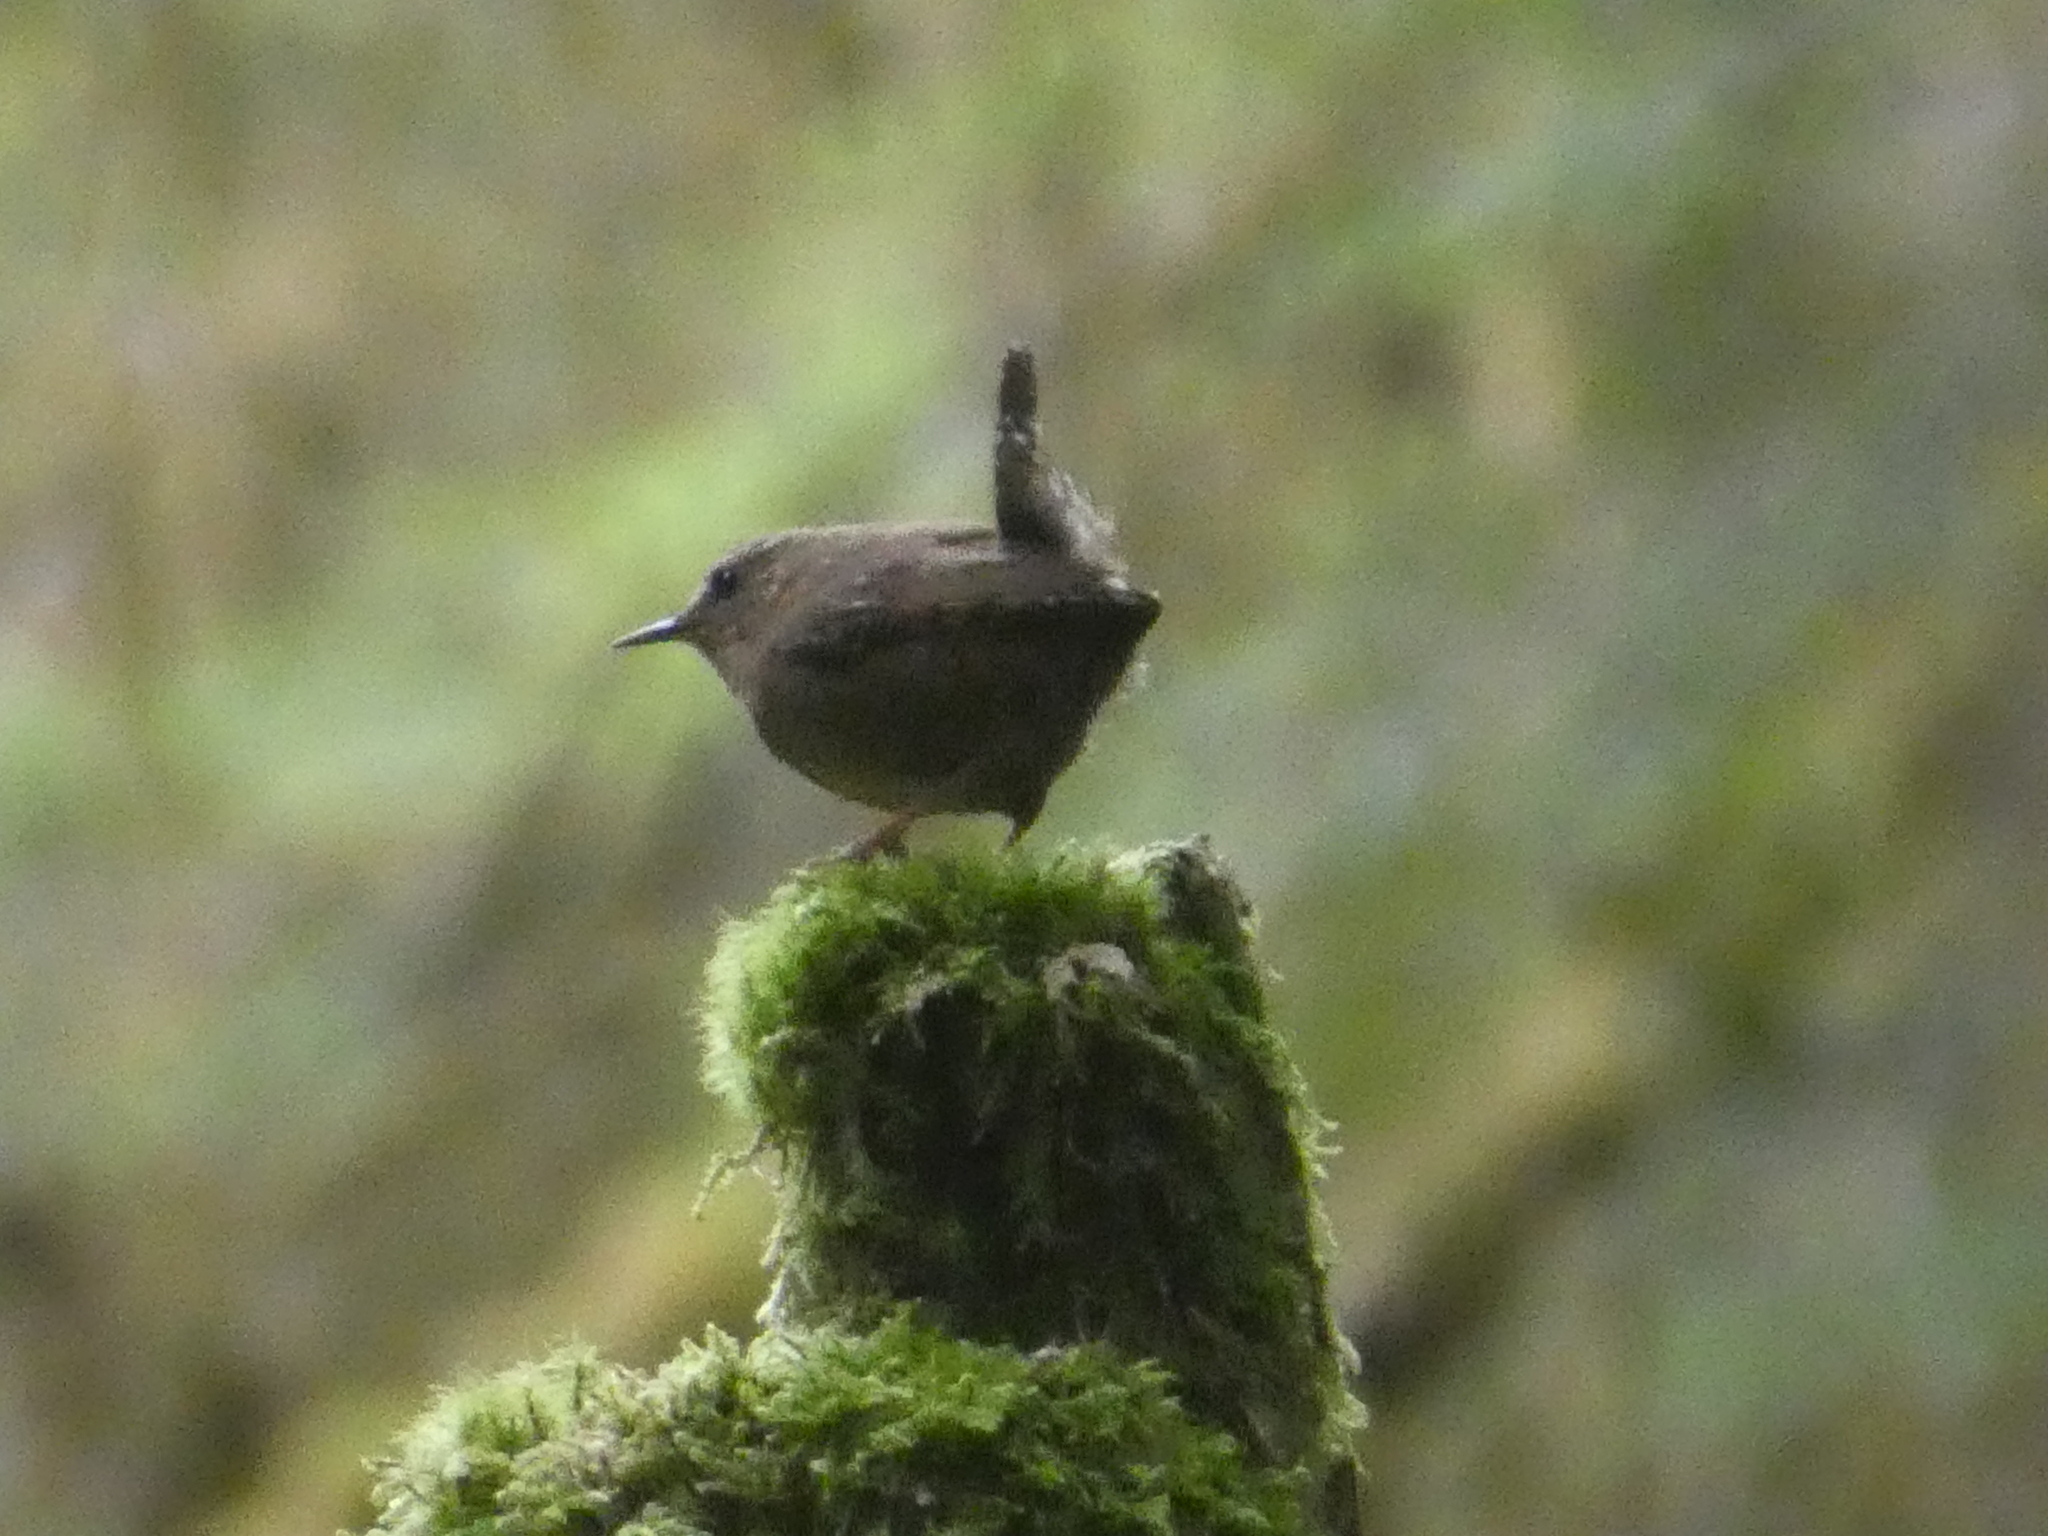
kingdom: Animalia
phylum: Chordata
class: Aves
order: Passeriformes
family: Troglodytidae
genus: Troglodytes
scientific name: Troglodytes pacificus
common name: Pacific wren
